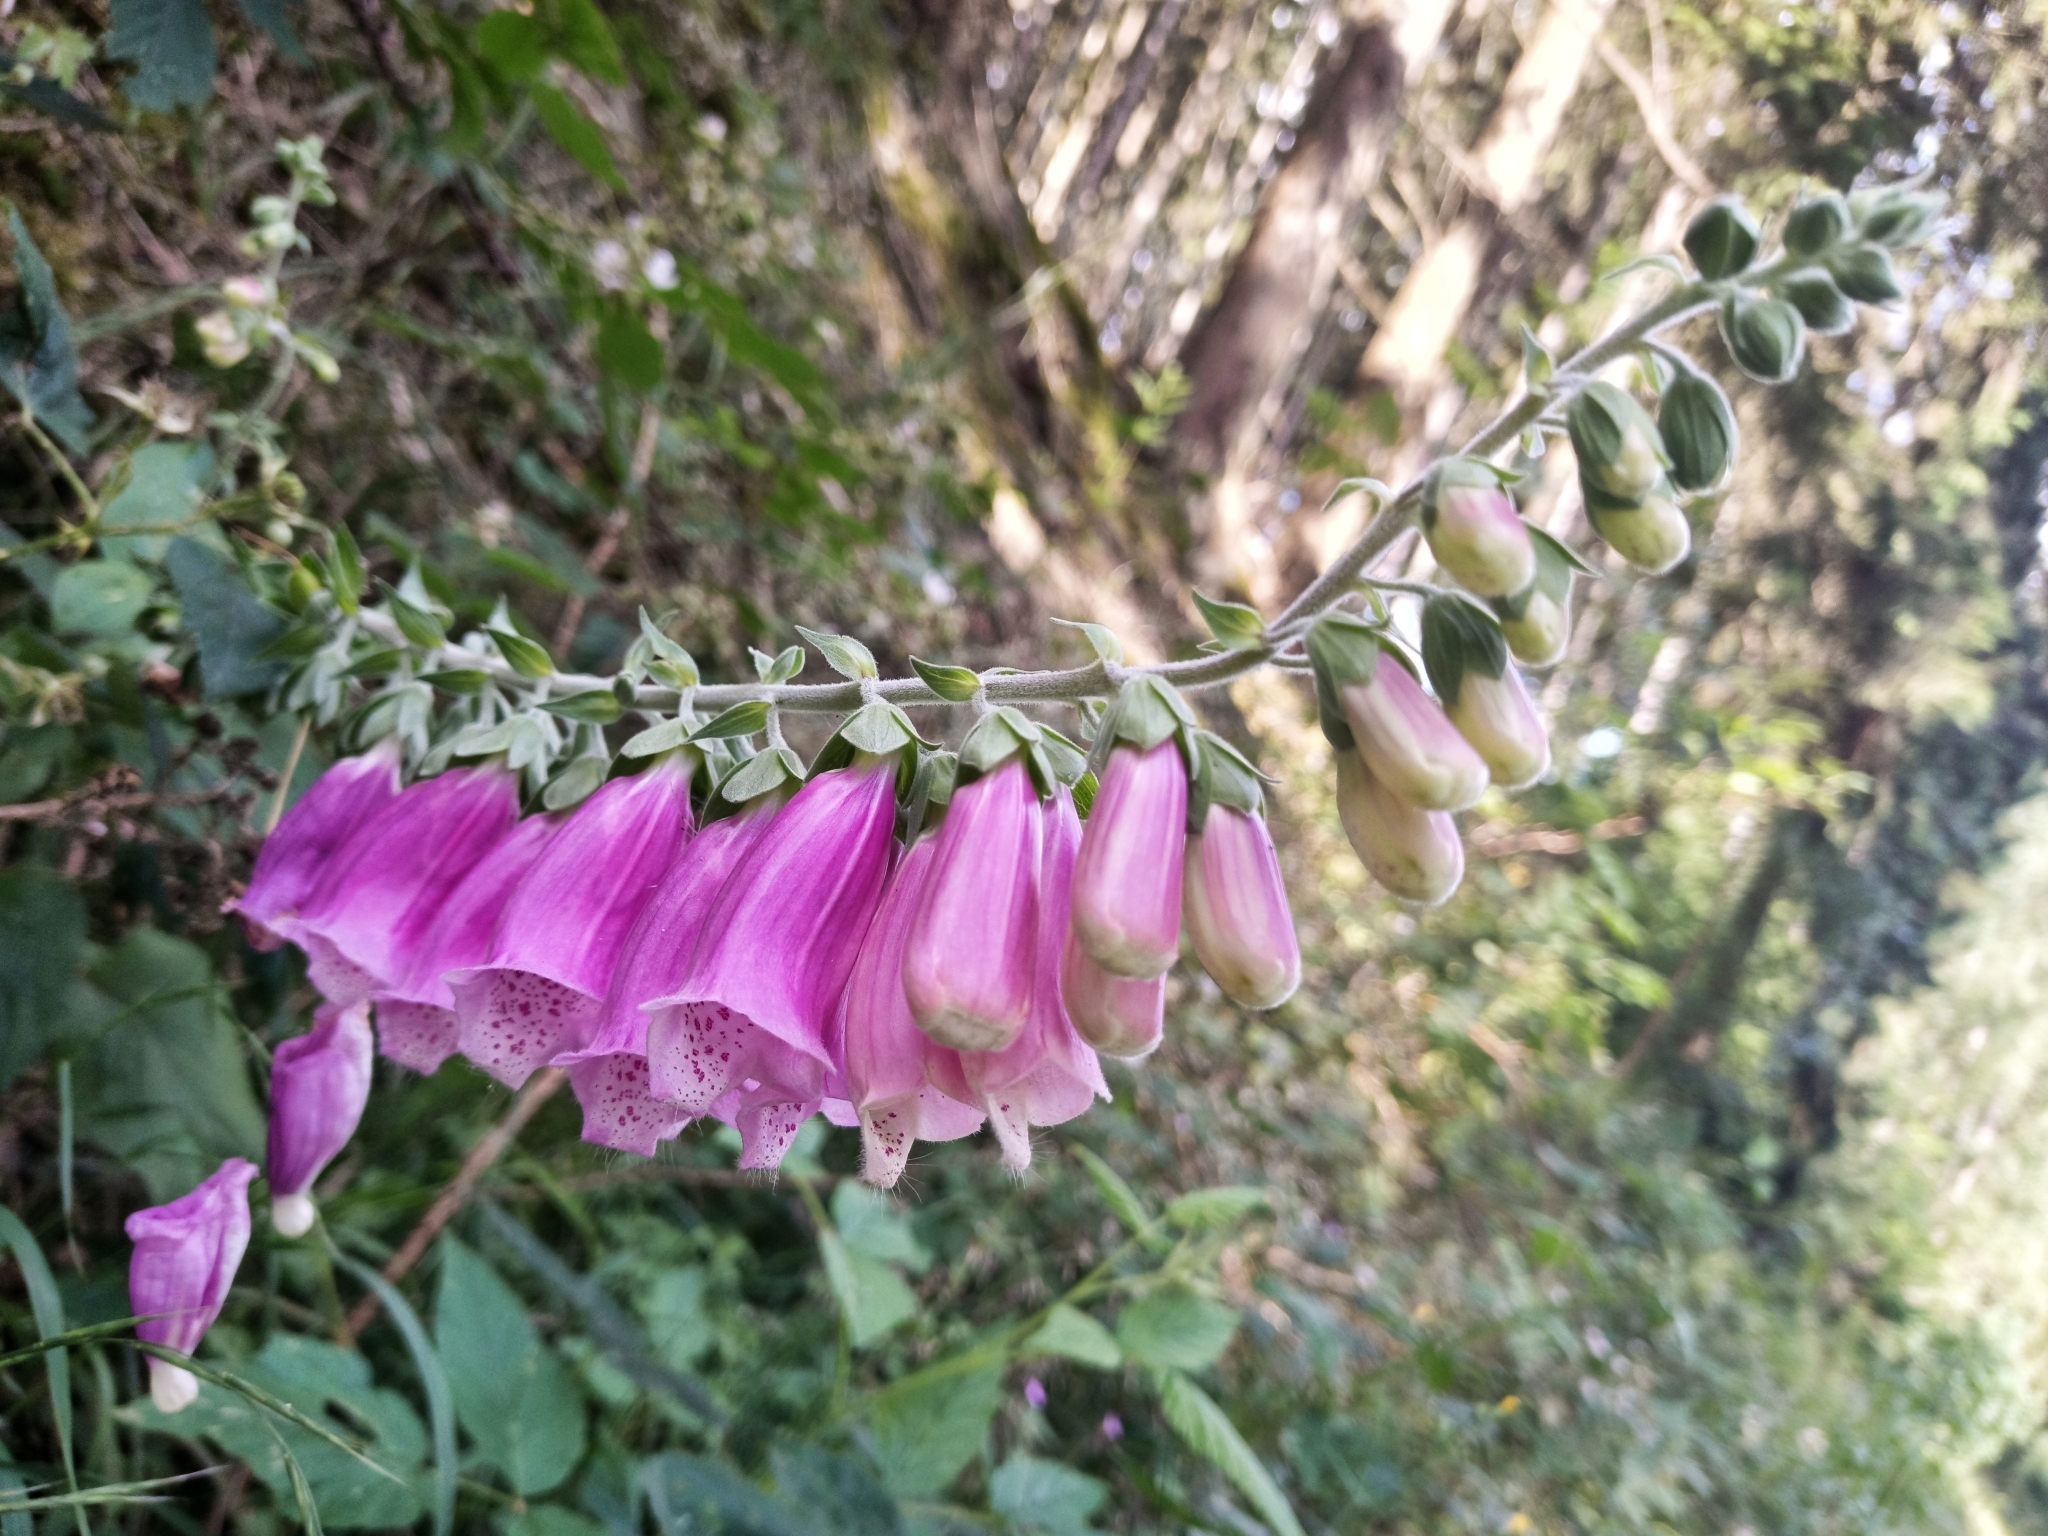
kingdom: Plantae
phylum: Tracheophyta
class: Magnoliopsida
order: Lamiales
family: Plantaginaceae
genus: Digitalis
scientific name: Digitalis purpurea
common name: Foxglove
